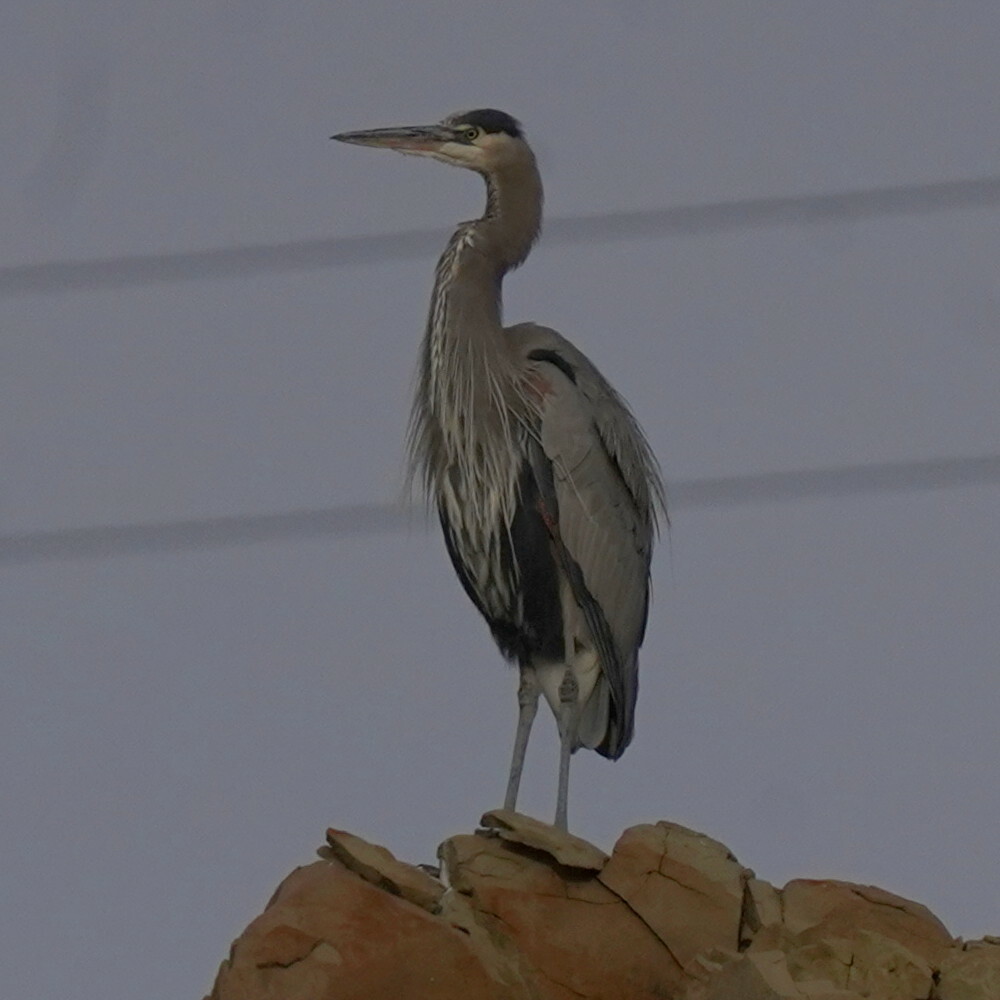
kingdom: Animalia
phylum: Chordata
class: Aves
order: Pelecaniformes
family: Ardeidae
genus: Ardea
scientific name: Ardea herodias
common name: Great blue heron
